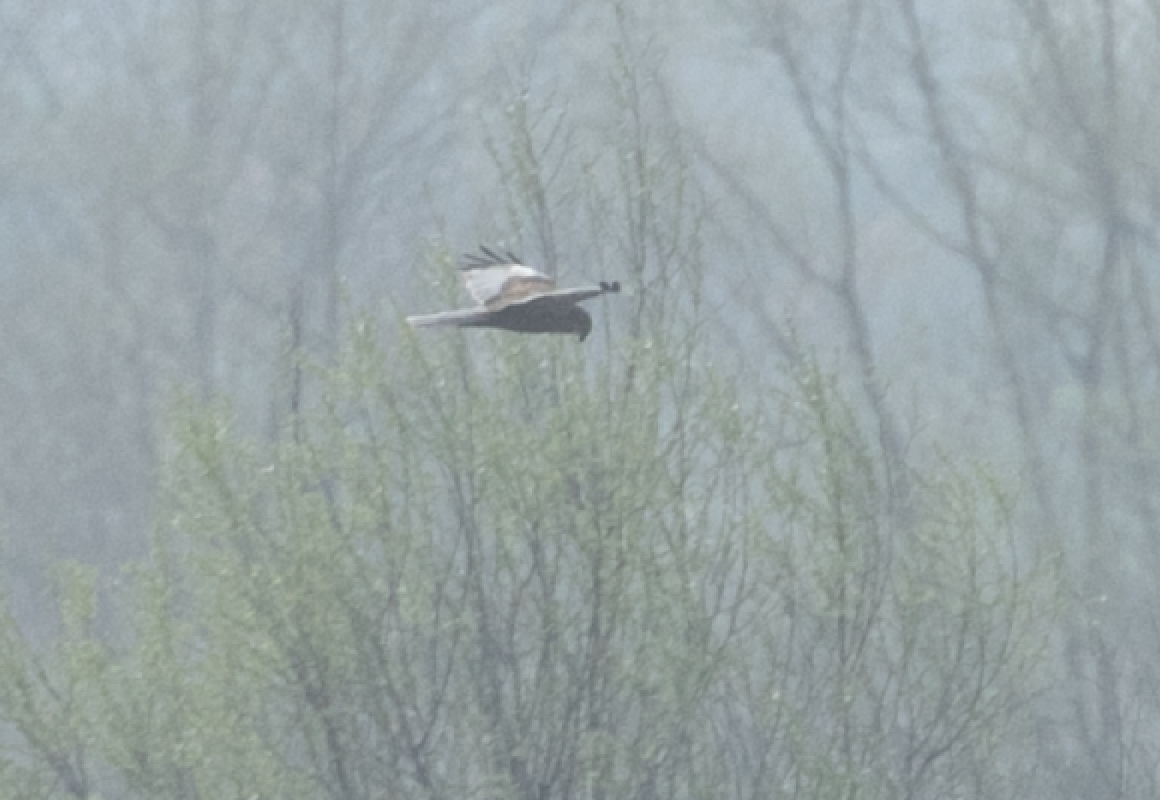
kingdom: Animalia
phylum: Chordata
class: Aves
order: Accipitriformes
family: Accipitridae
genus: Circus
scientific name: Circus aeruginosus
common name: Western marsh harrier
